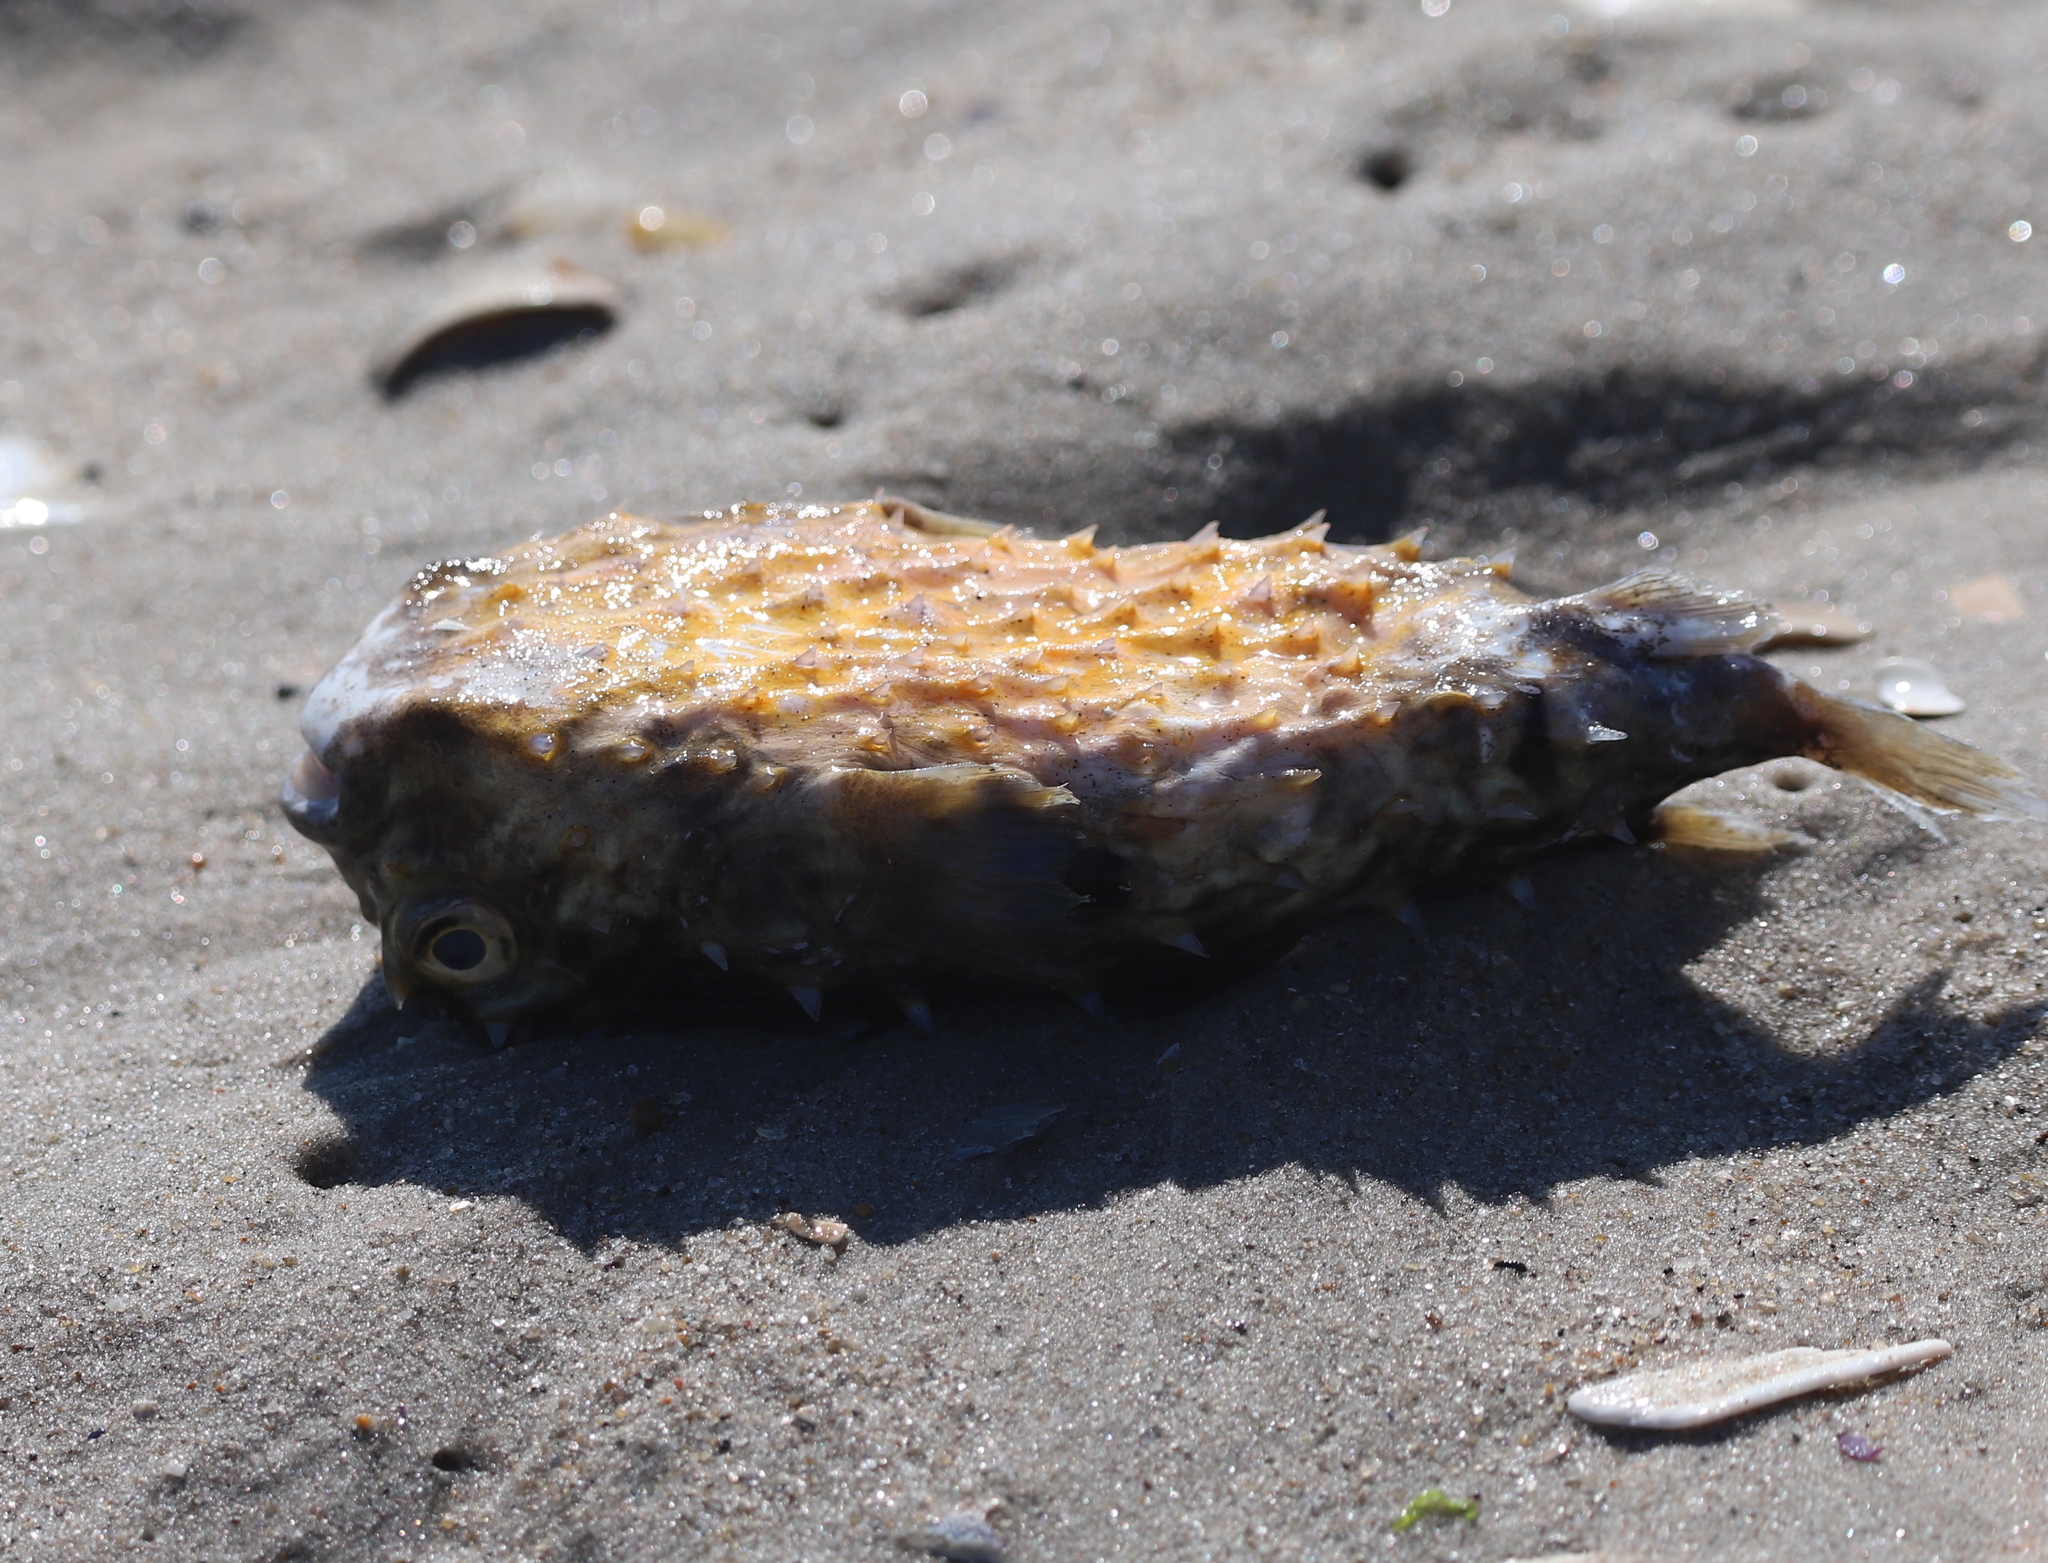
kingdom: Animalia
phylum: Chordata
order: Tetraodontiformes
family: Diodontidae
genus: Chilomycterus
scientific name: Chilomycterus schoepfii
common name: Striped burrfish
